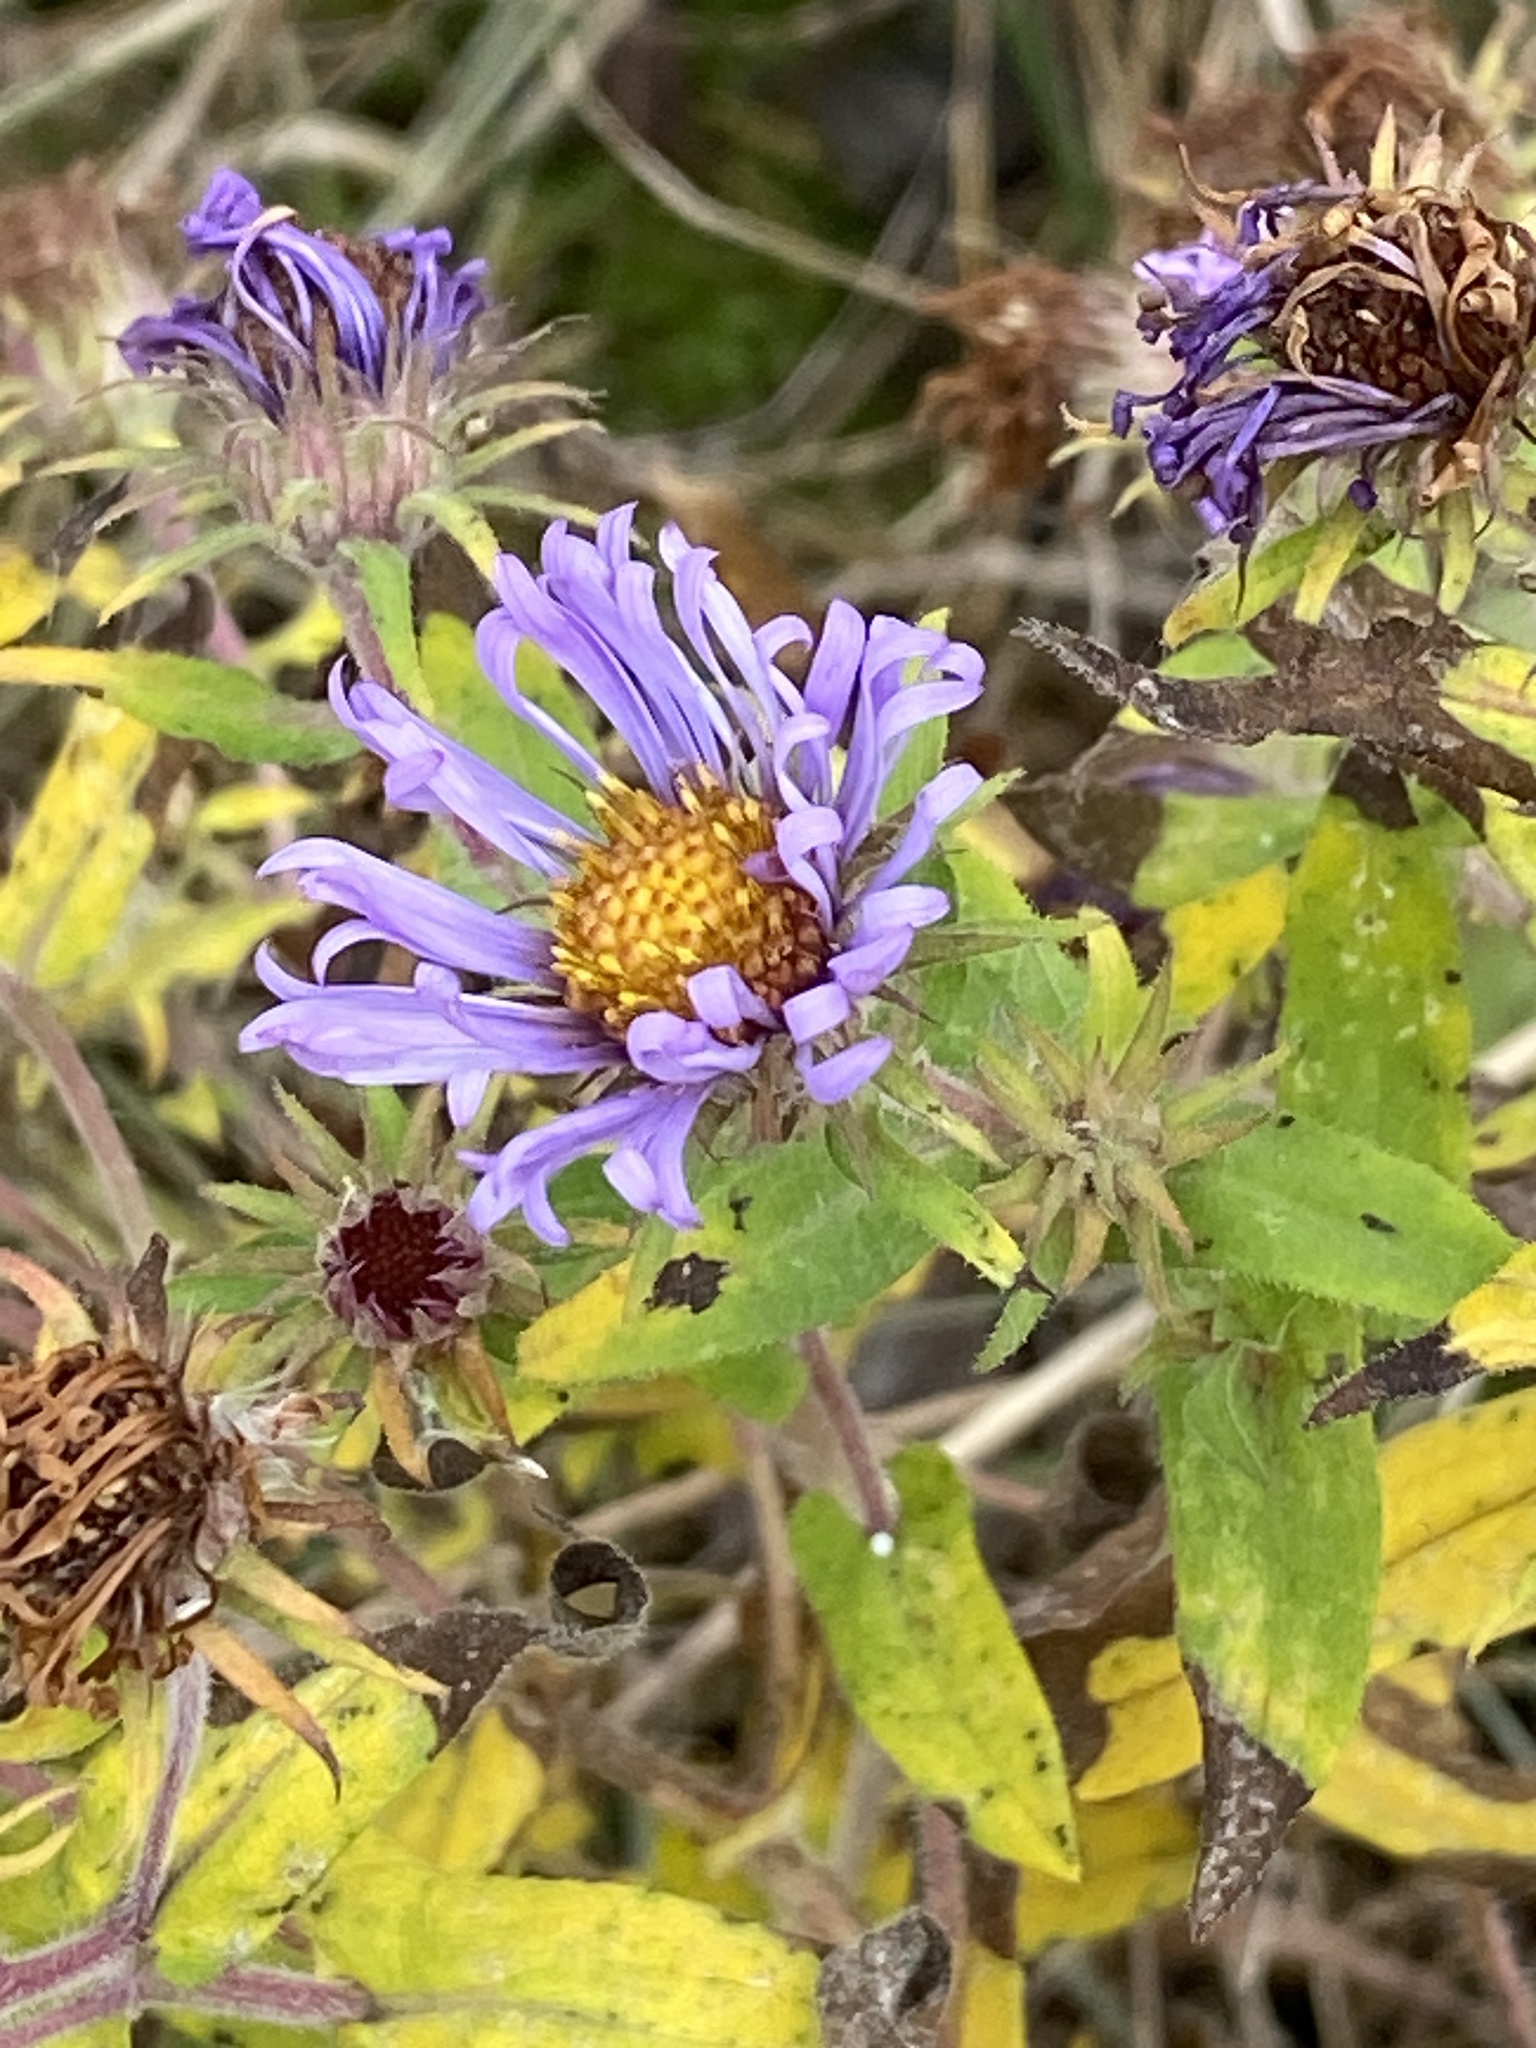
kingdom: Plantae
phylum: Tracheophyta
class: Magnoliopsida
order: Asterales
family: Asteraceae
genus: Symphyotrichum
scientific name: Symphyotrichum novae-angliae
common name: Michaelmas daisy
